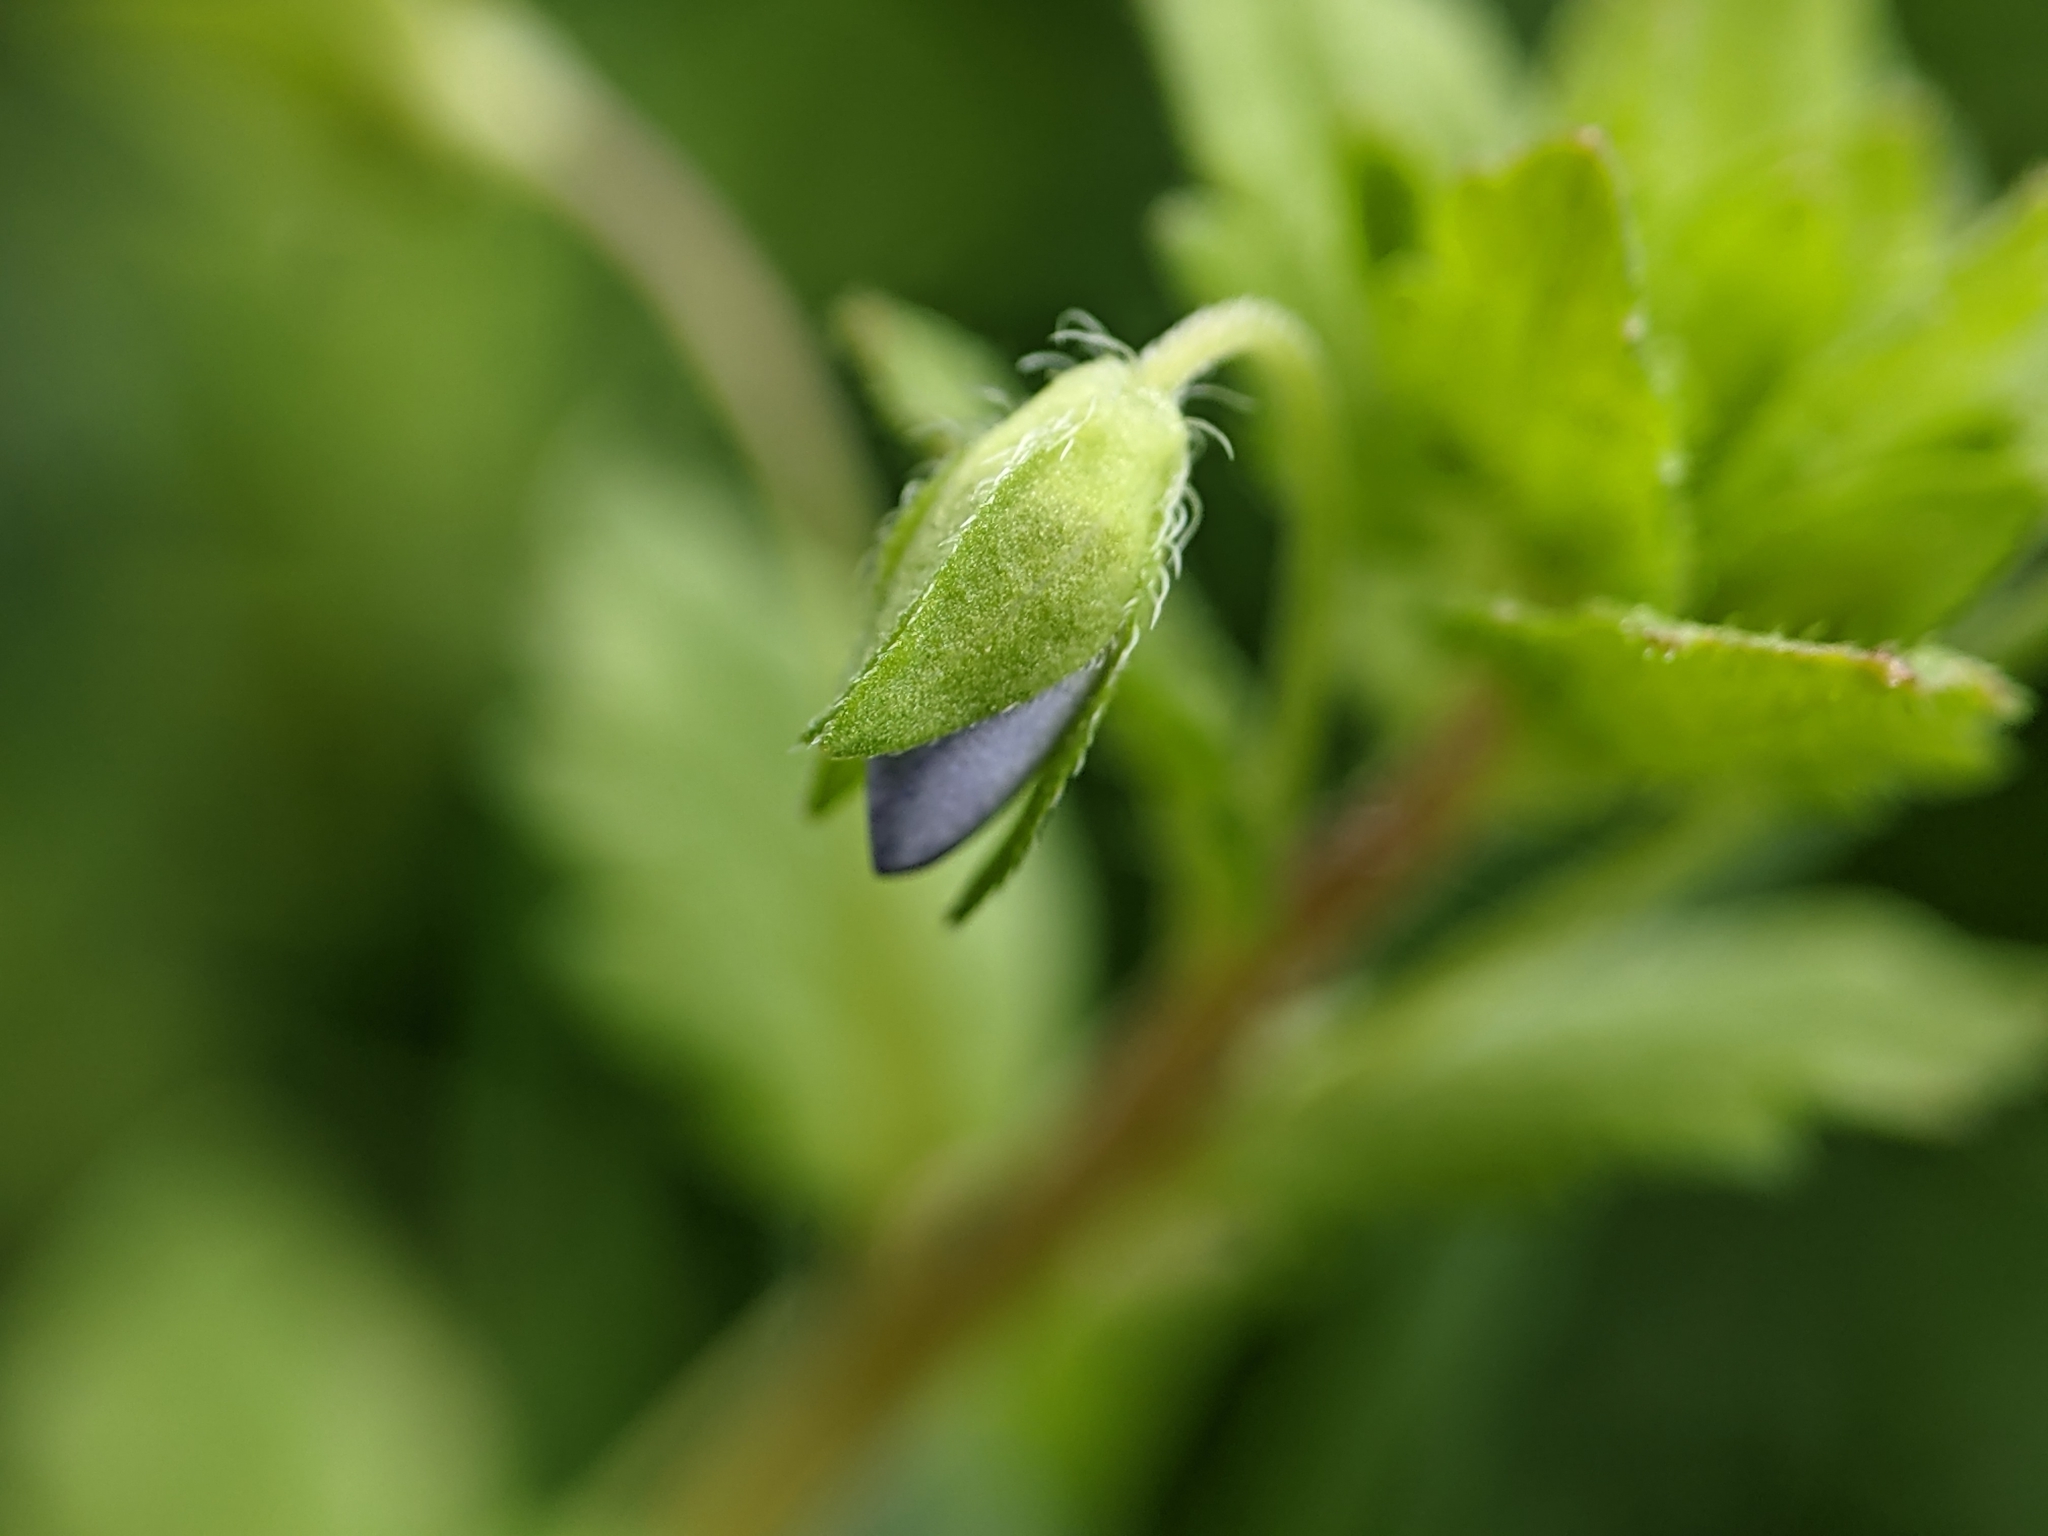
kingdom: Plantae
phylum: Tracheophyta
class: Magnoliopsida
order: Lamiales
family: Plantaginaceae
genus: Veronica
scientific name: Veronica persica
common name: Common field-speedwell
